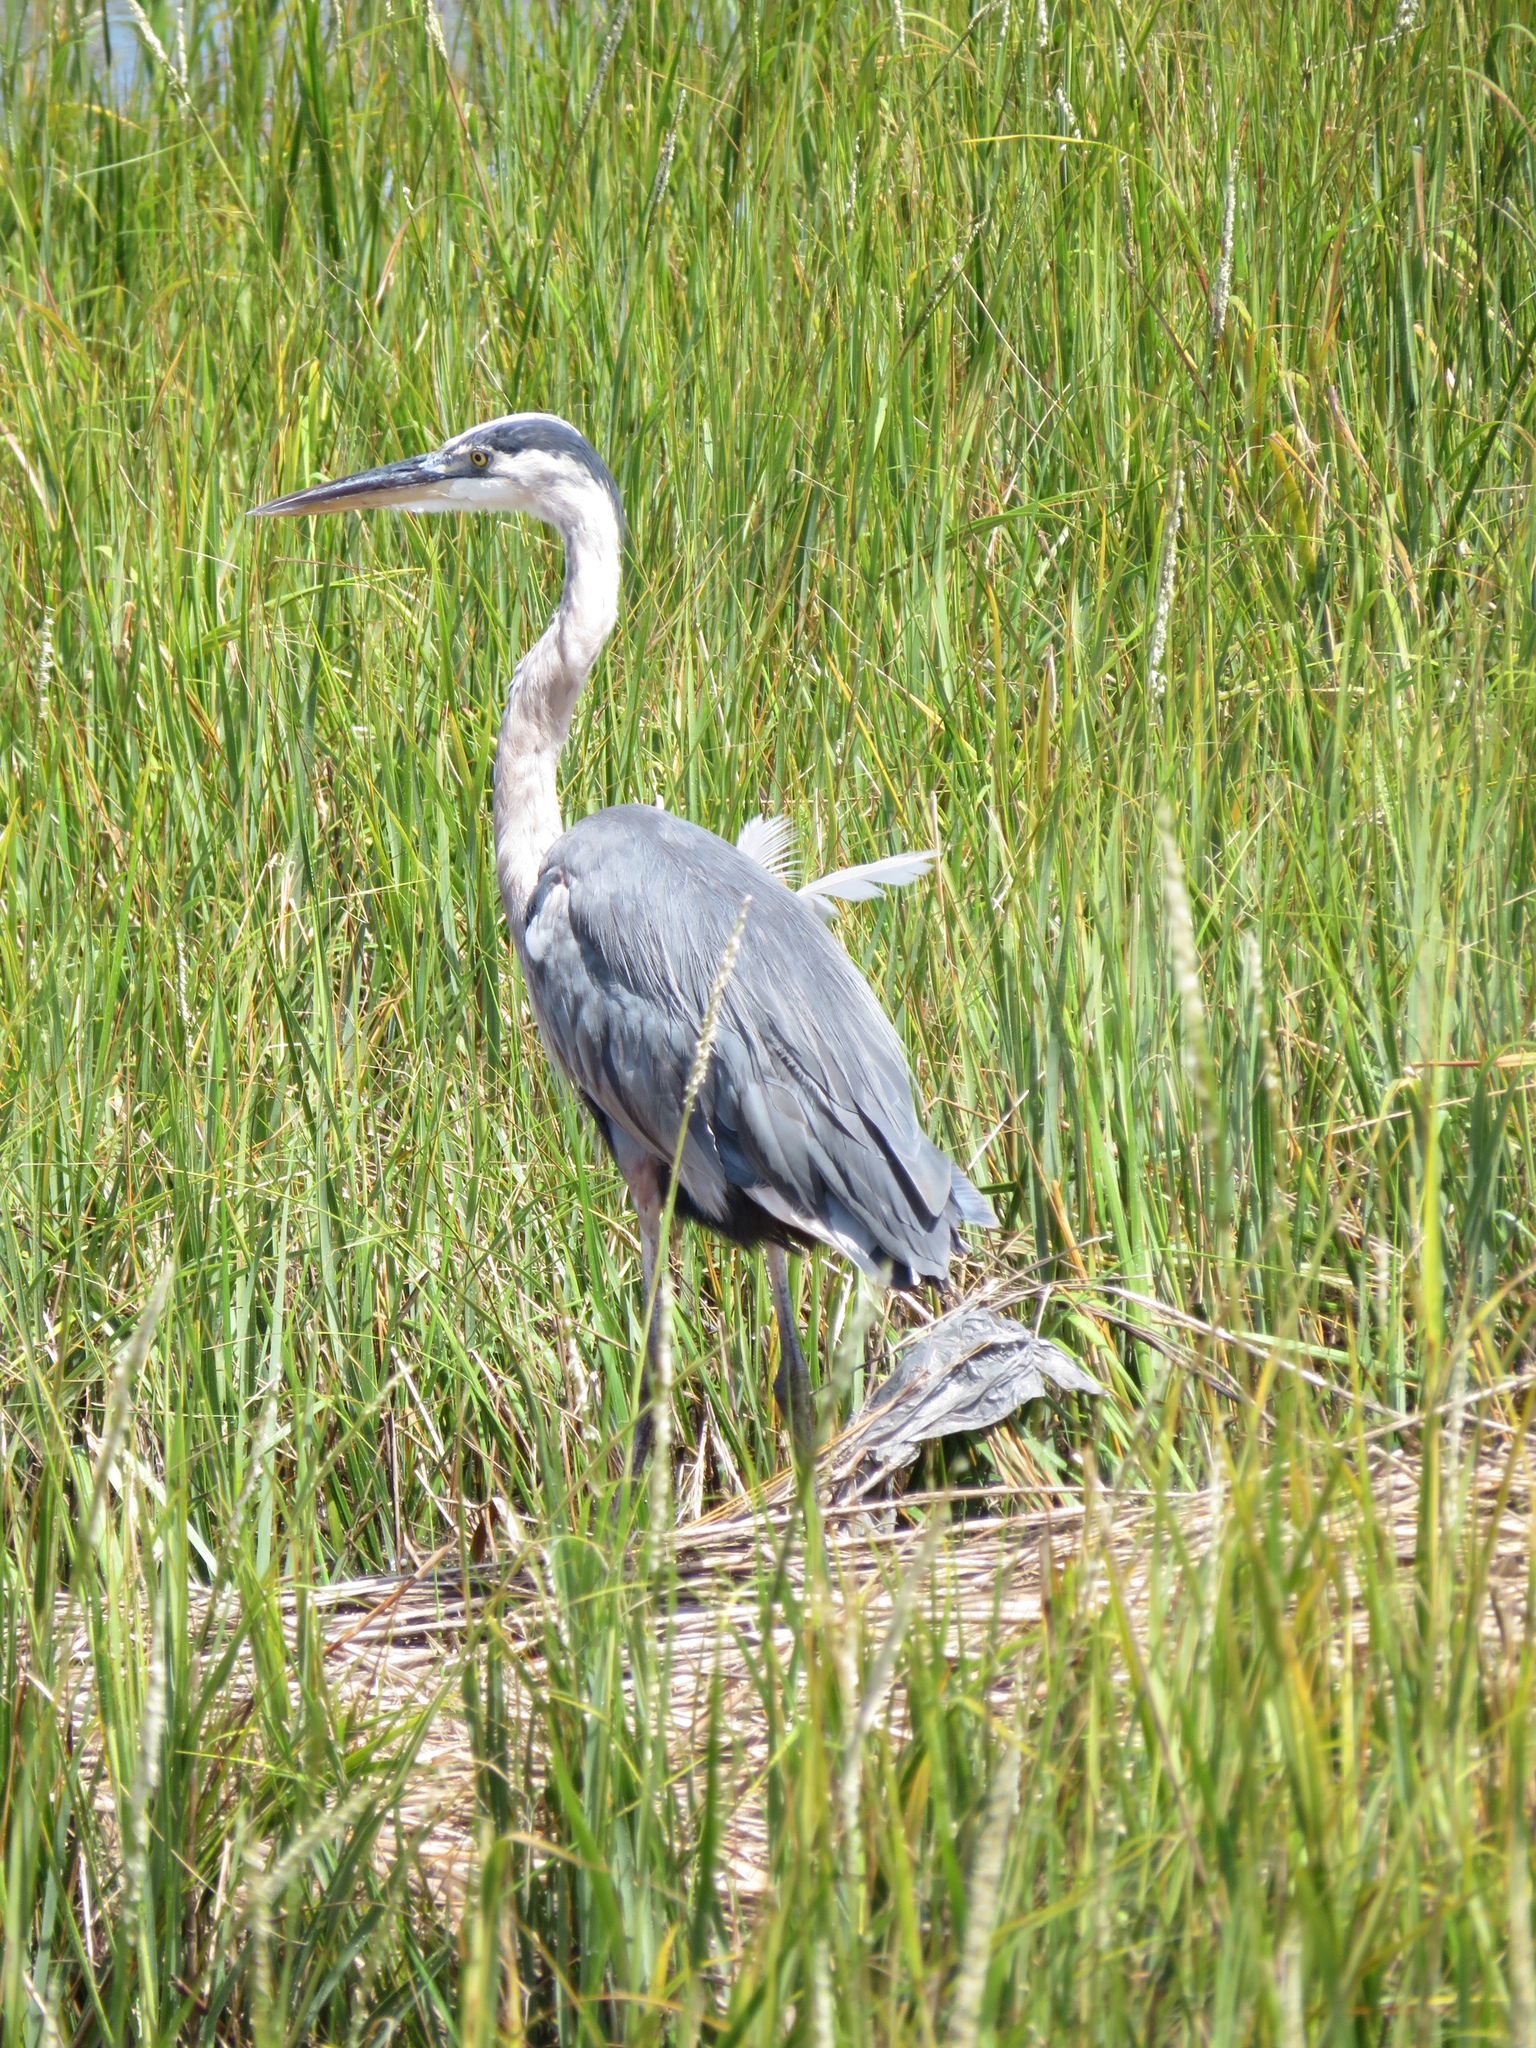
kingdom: Animalia
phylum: Chordata
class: Aves
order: Pelecaniformes
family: Ardeidae
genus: Ardea
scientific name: Ardea herodias
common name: Great blue heron
